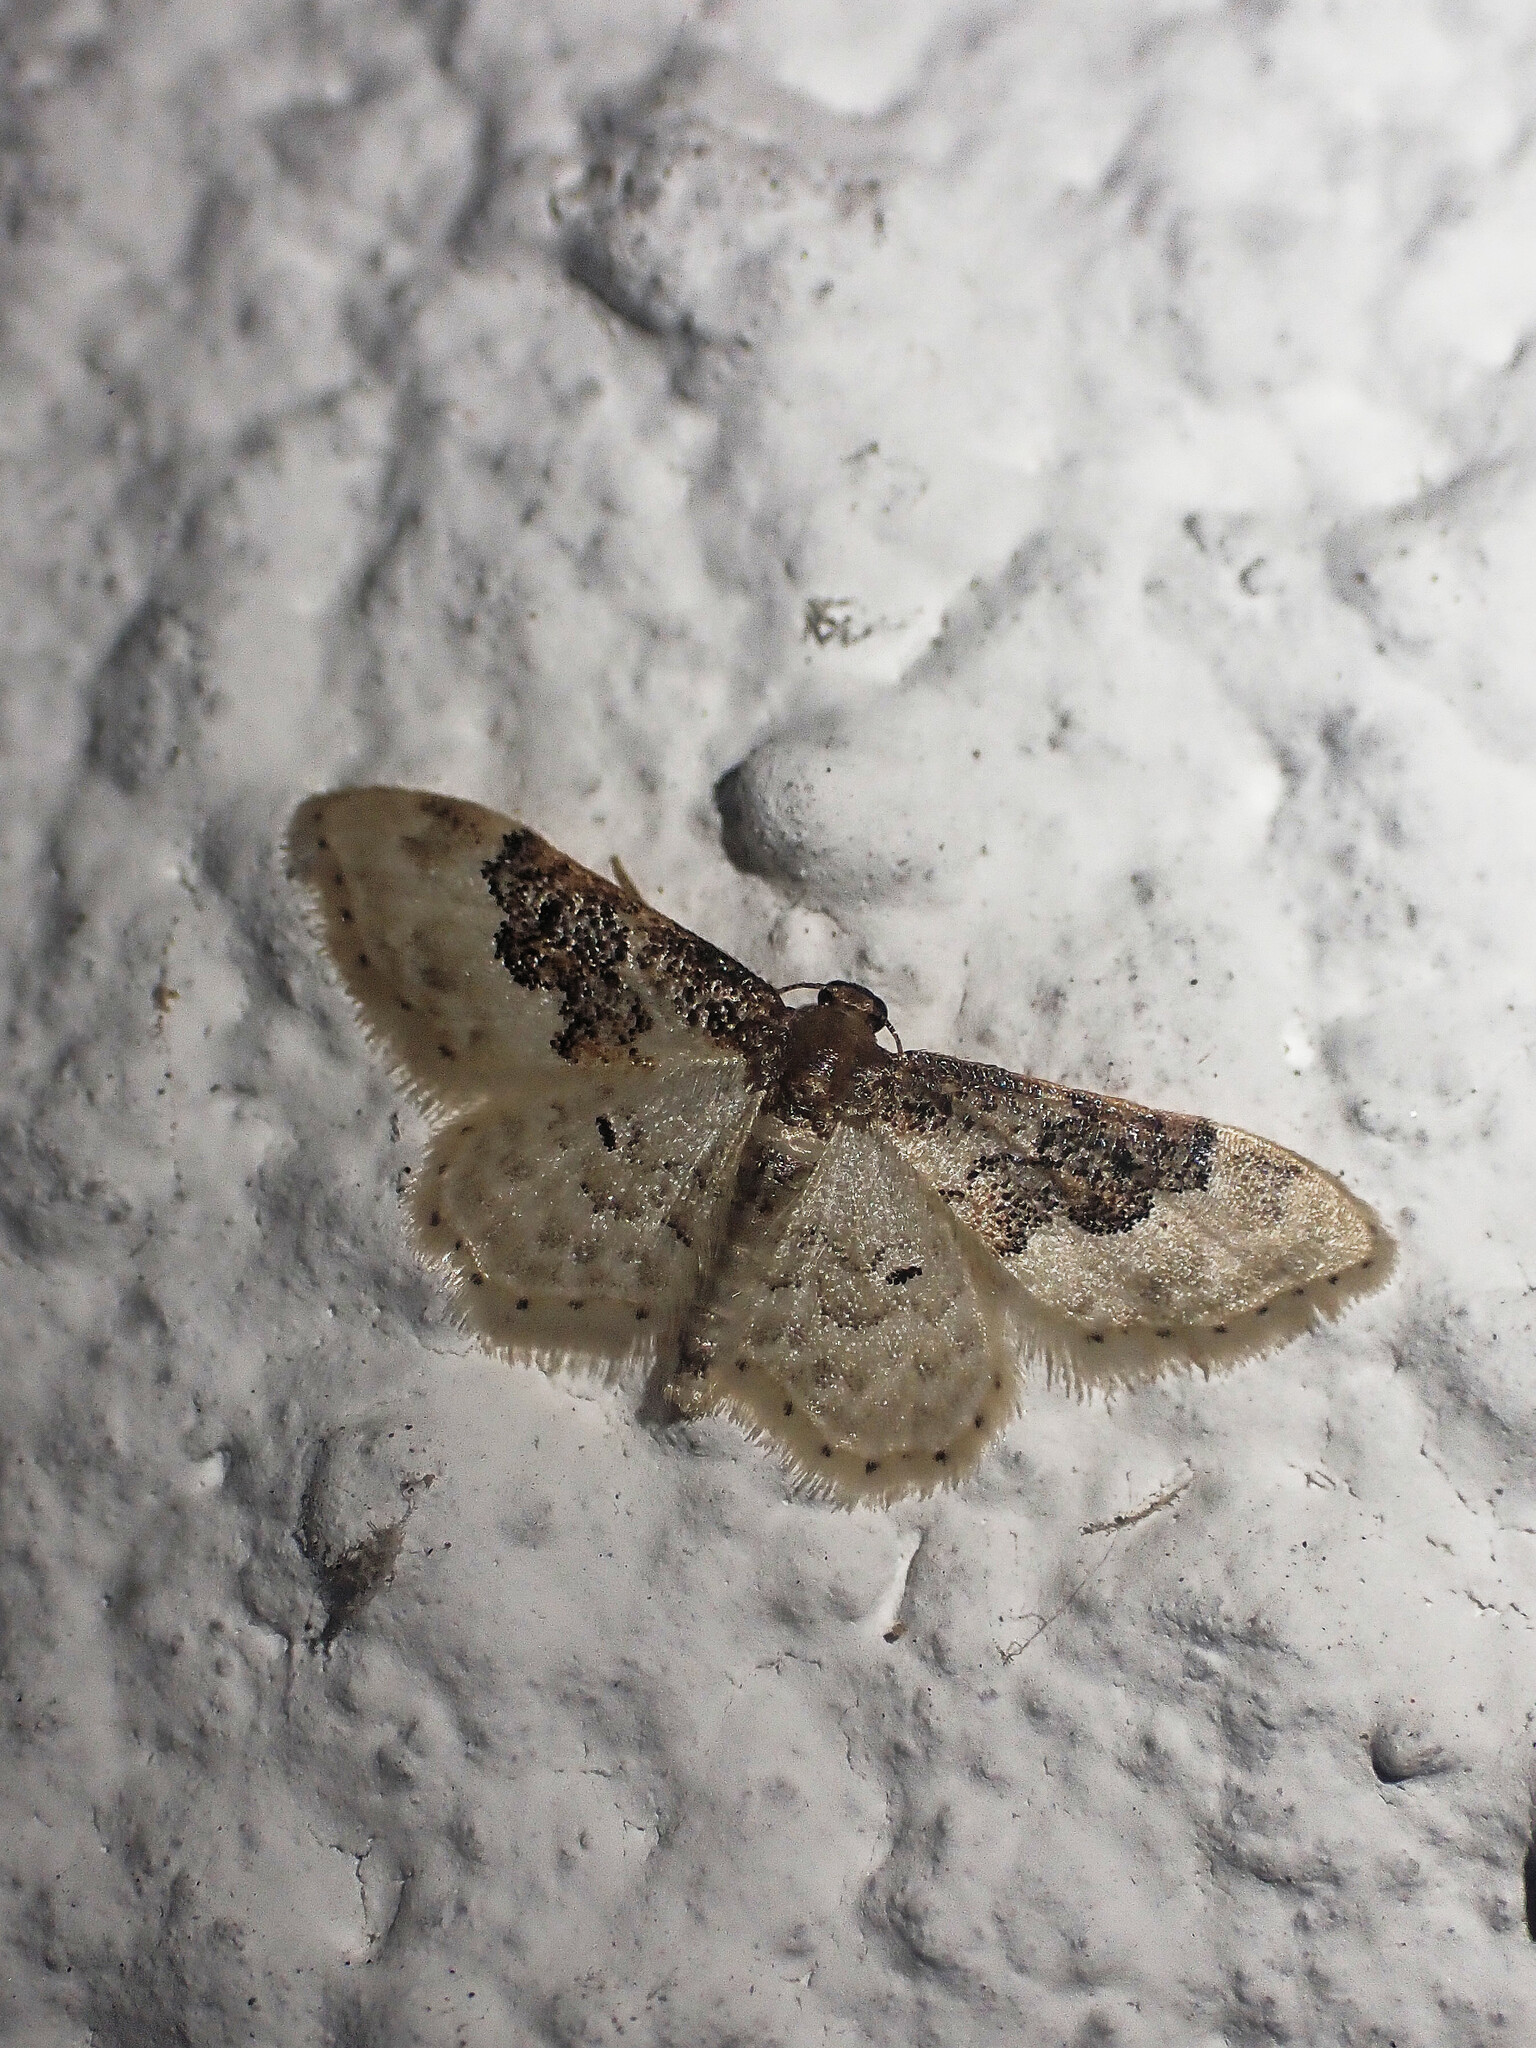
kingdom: Animalia
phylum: Arthropoda
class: Insecta
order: Lepidoptera
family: Geometridae
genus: Idaea
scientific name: Idaea rusticata
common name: Least carpet
